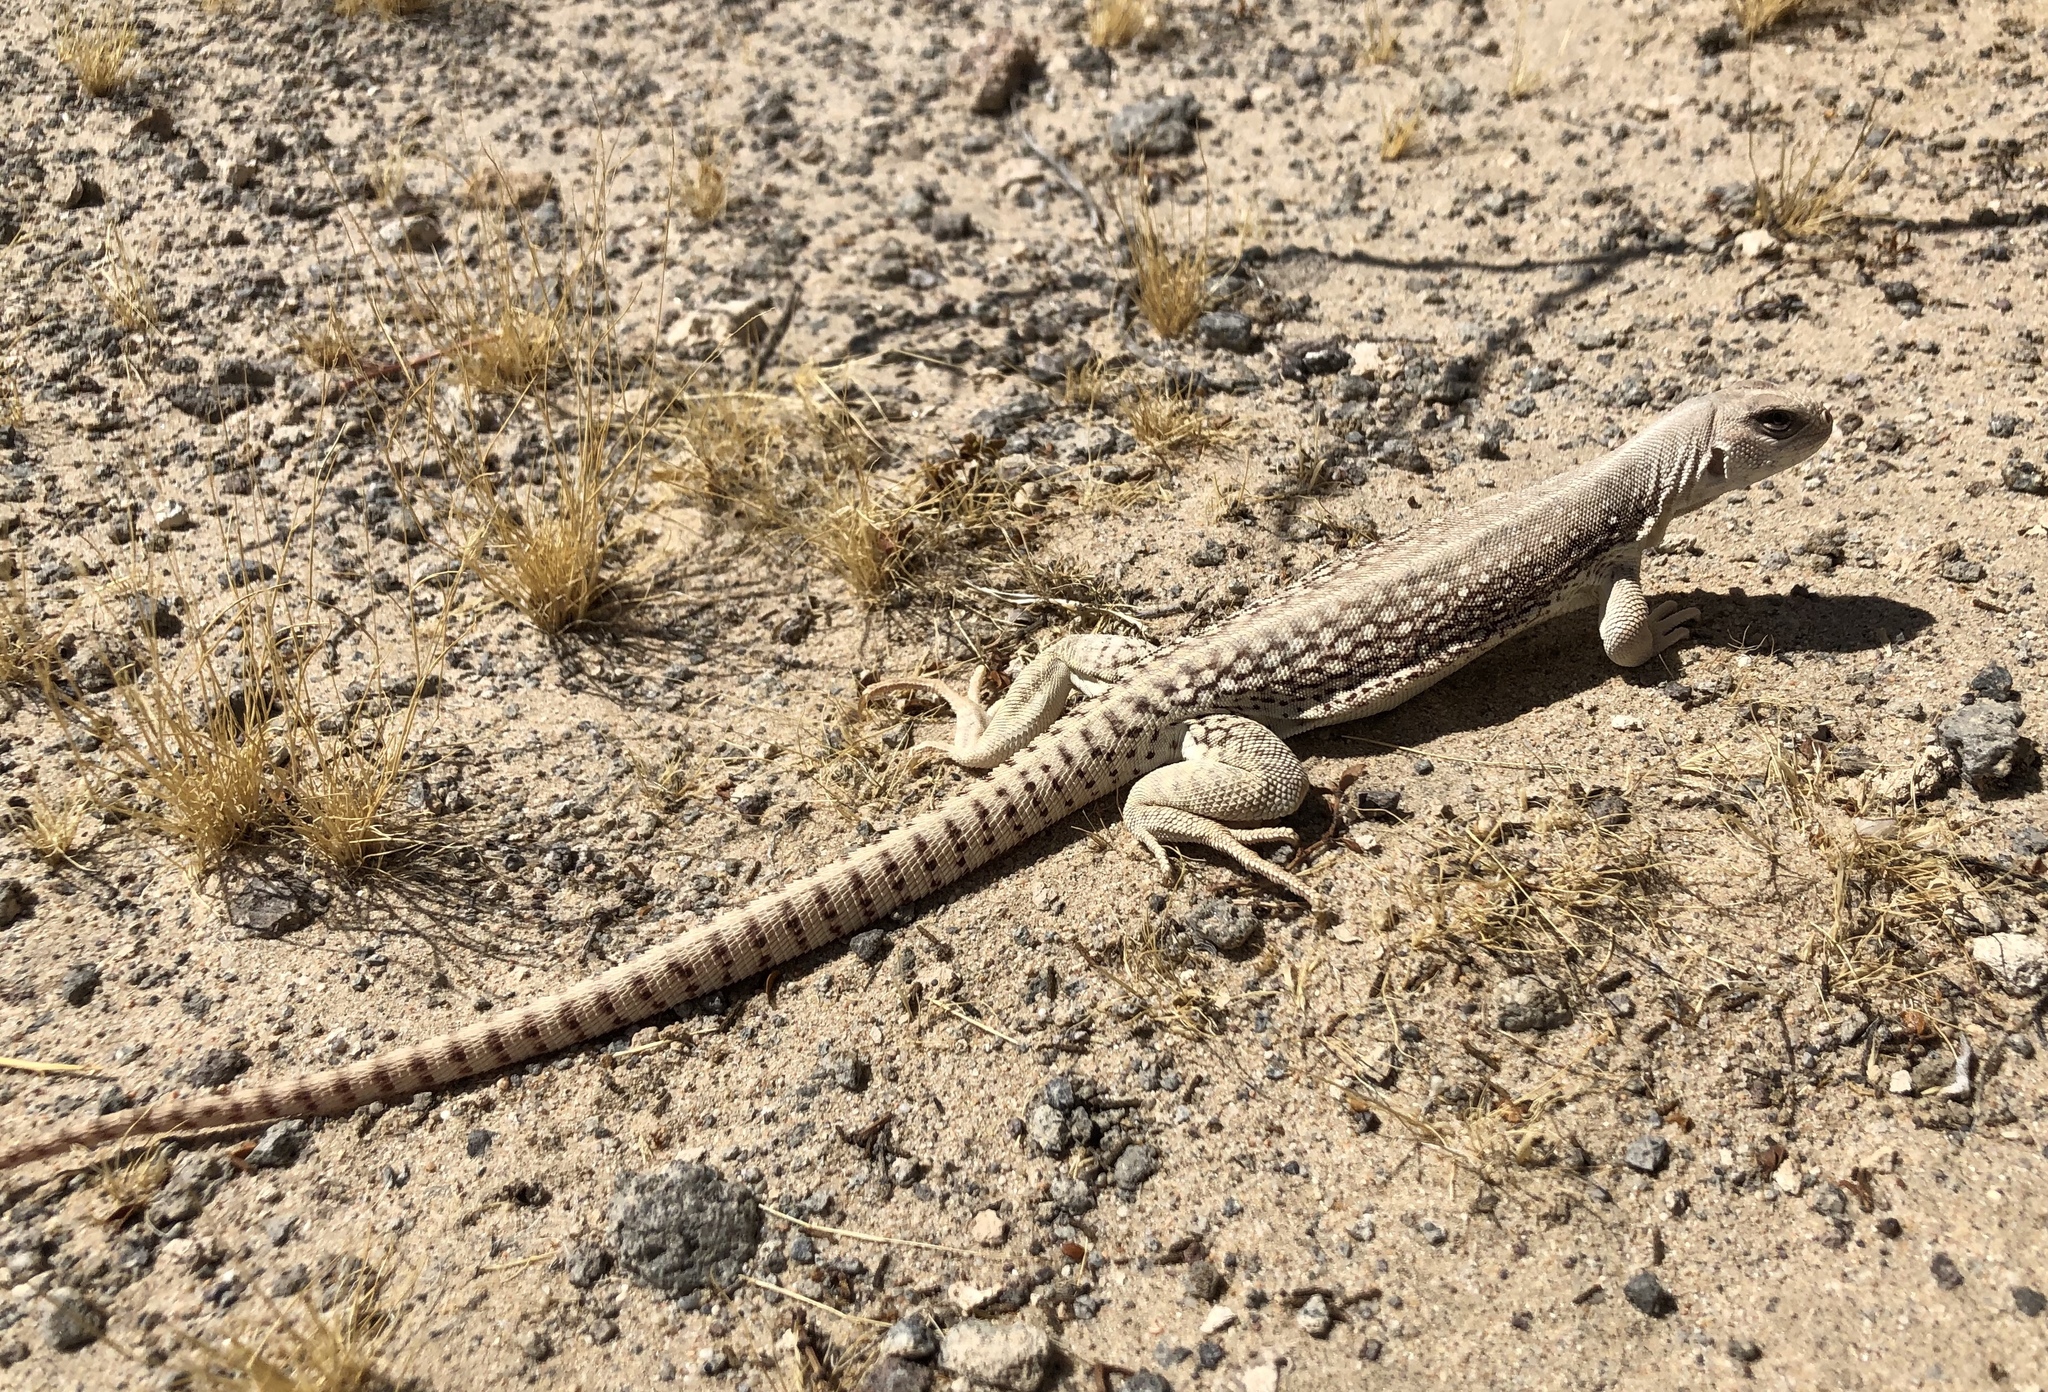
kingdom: Animalia
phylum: Chordata
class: Squamata
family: Iguanidae
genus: Dipsosaurus
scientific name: Dipsosaurus dorsalis
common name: Desert iguana
